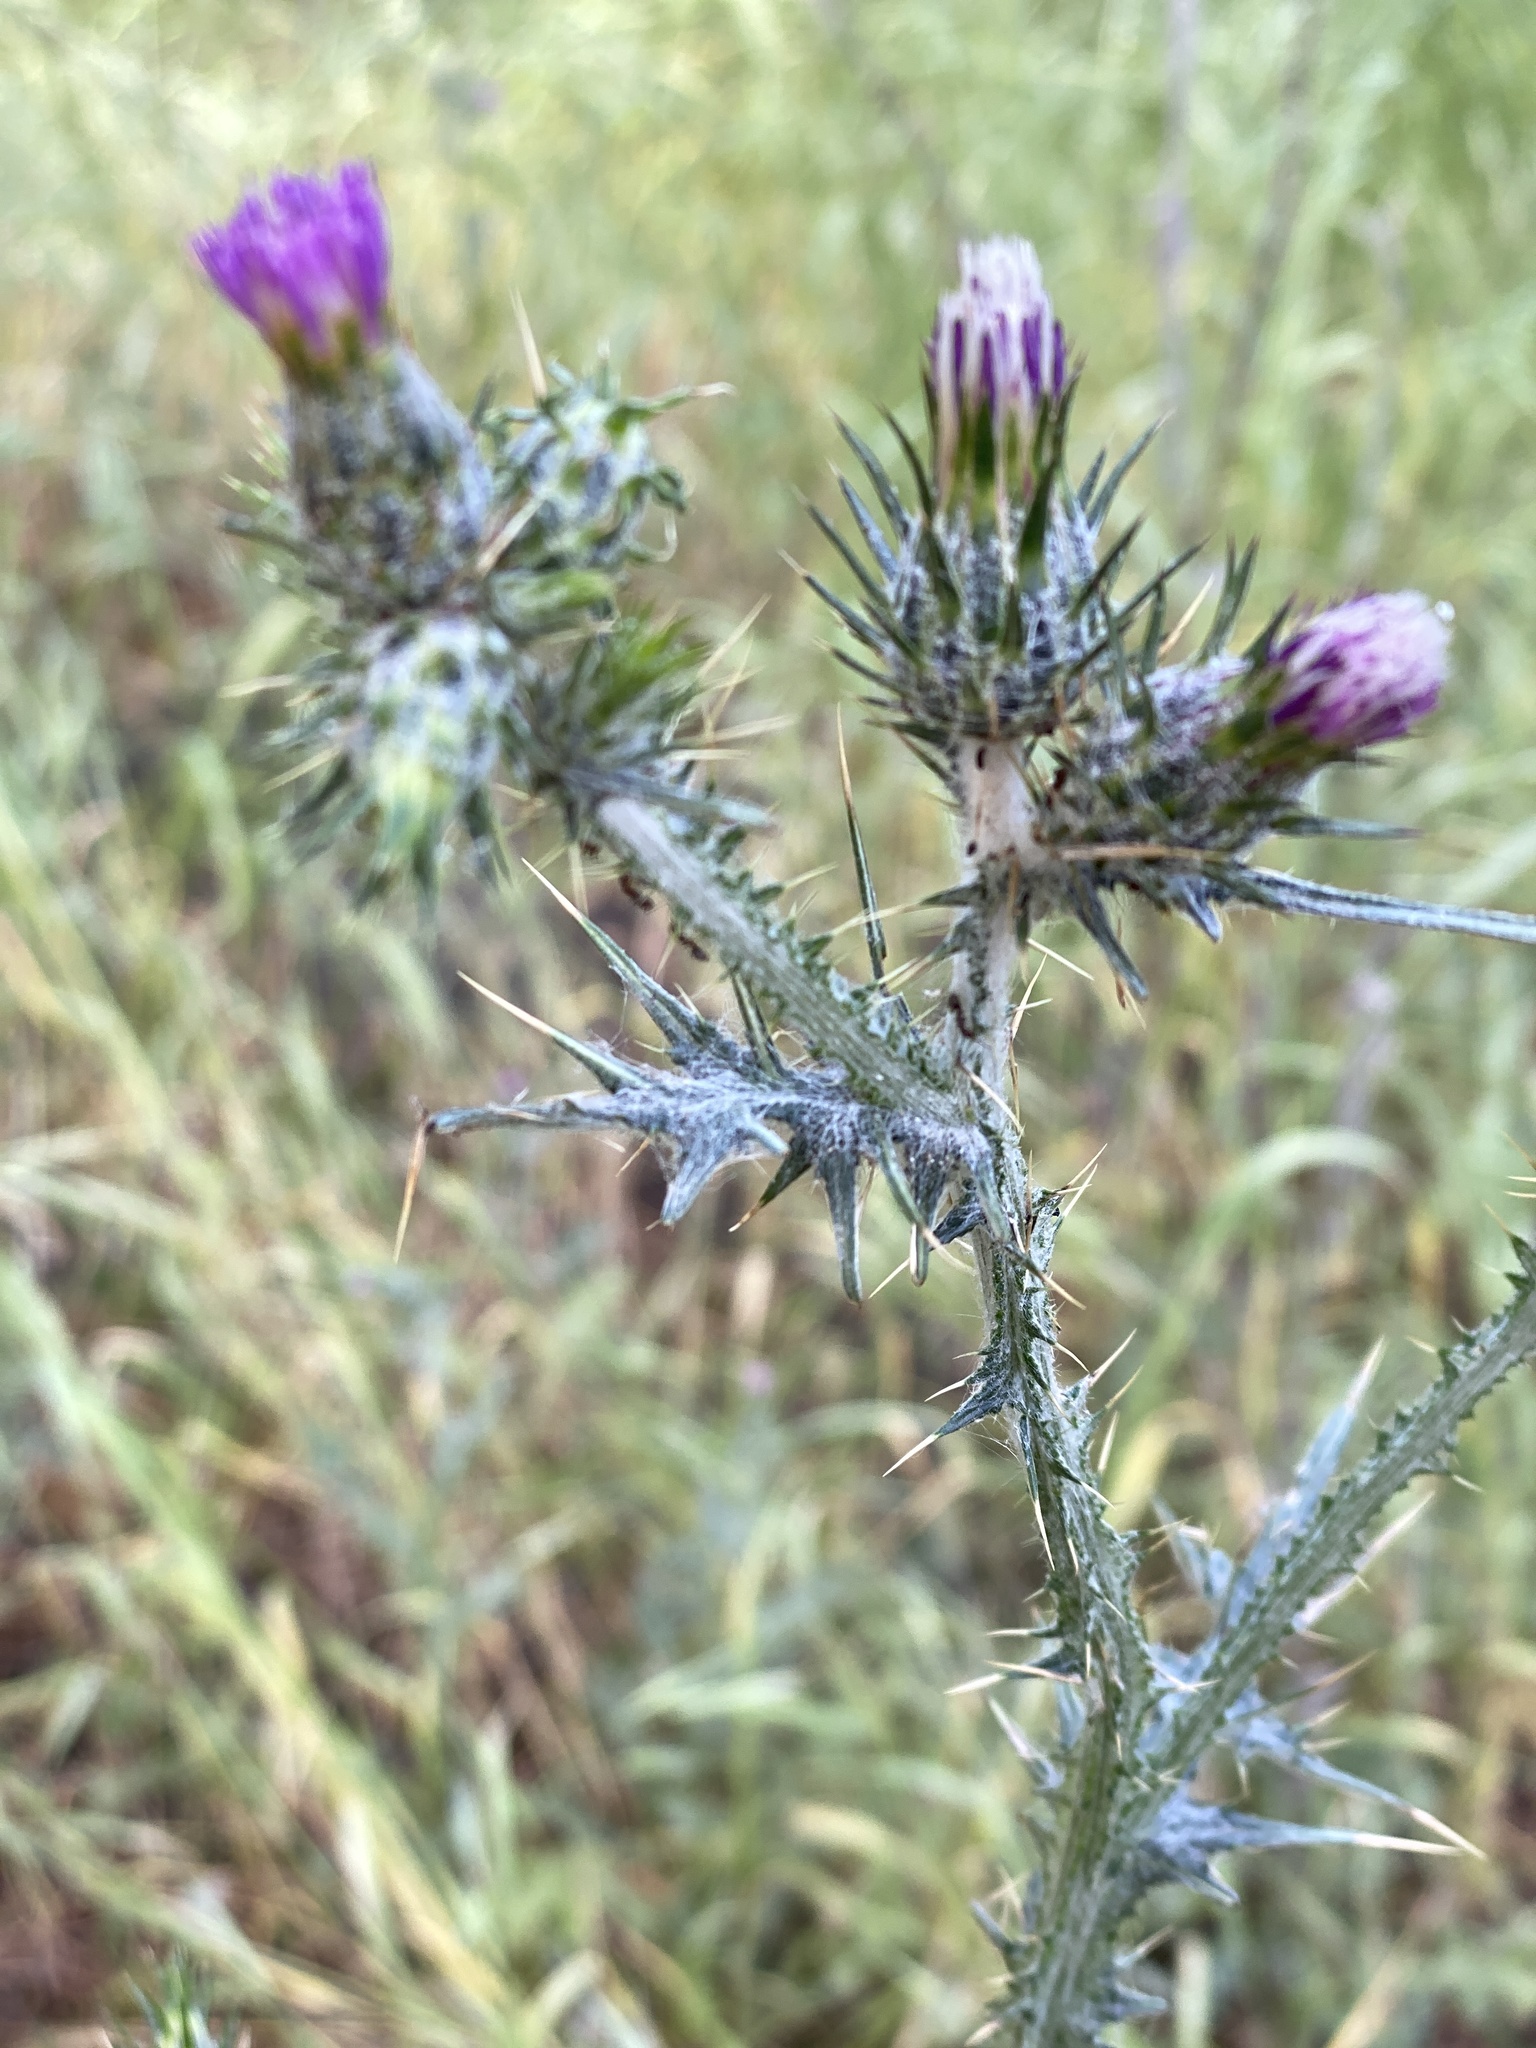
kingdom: Plantae
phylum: Tracheophyta
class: Magnoliopsida
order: Asterales
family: Asteraceae
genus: Carduus
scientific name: Carduus pycnocephalus
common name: Plymouth thistle
